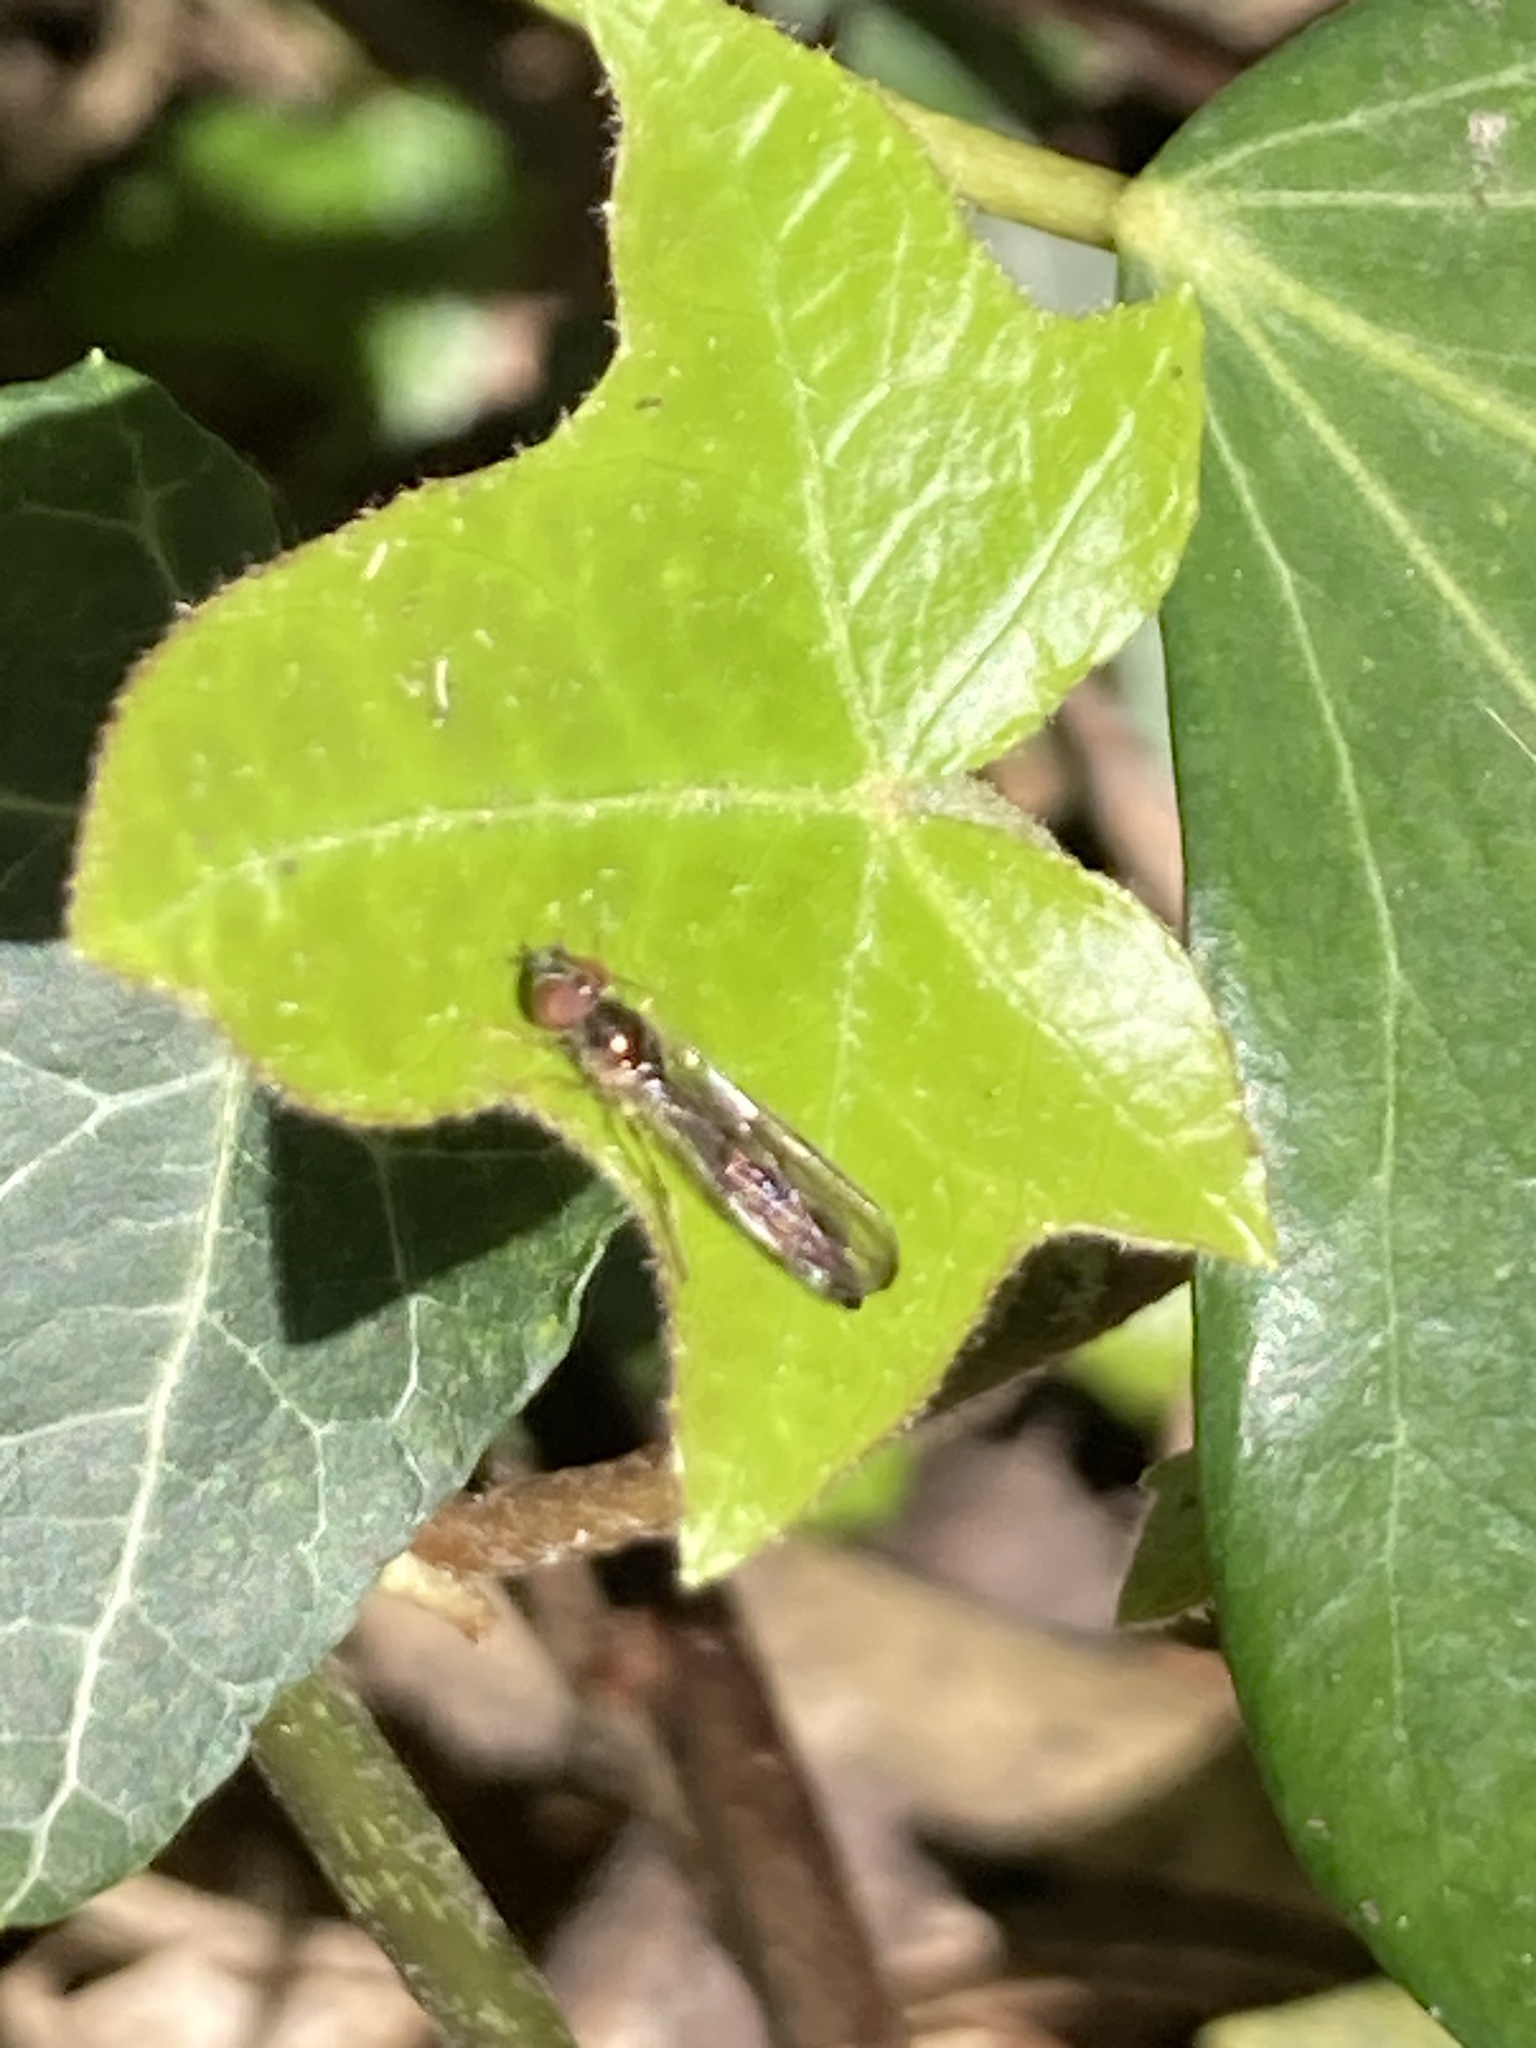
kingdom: Animalia
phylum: Arthropoda
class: Insecta
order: Diptera
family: Syrphidae
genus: Baccha
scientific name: Baccha elongata
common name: Common dainty
